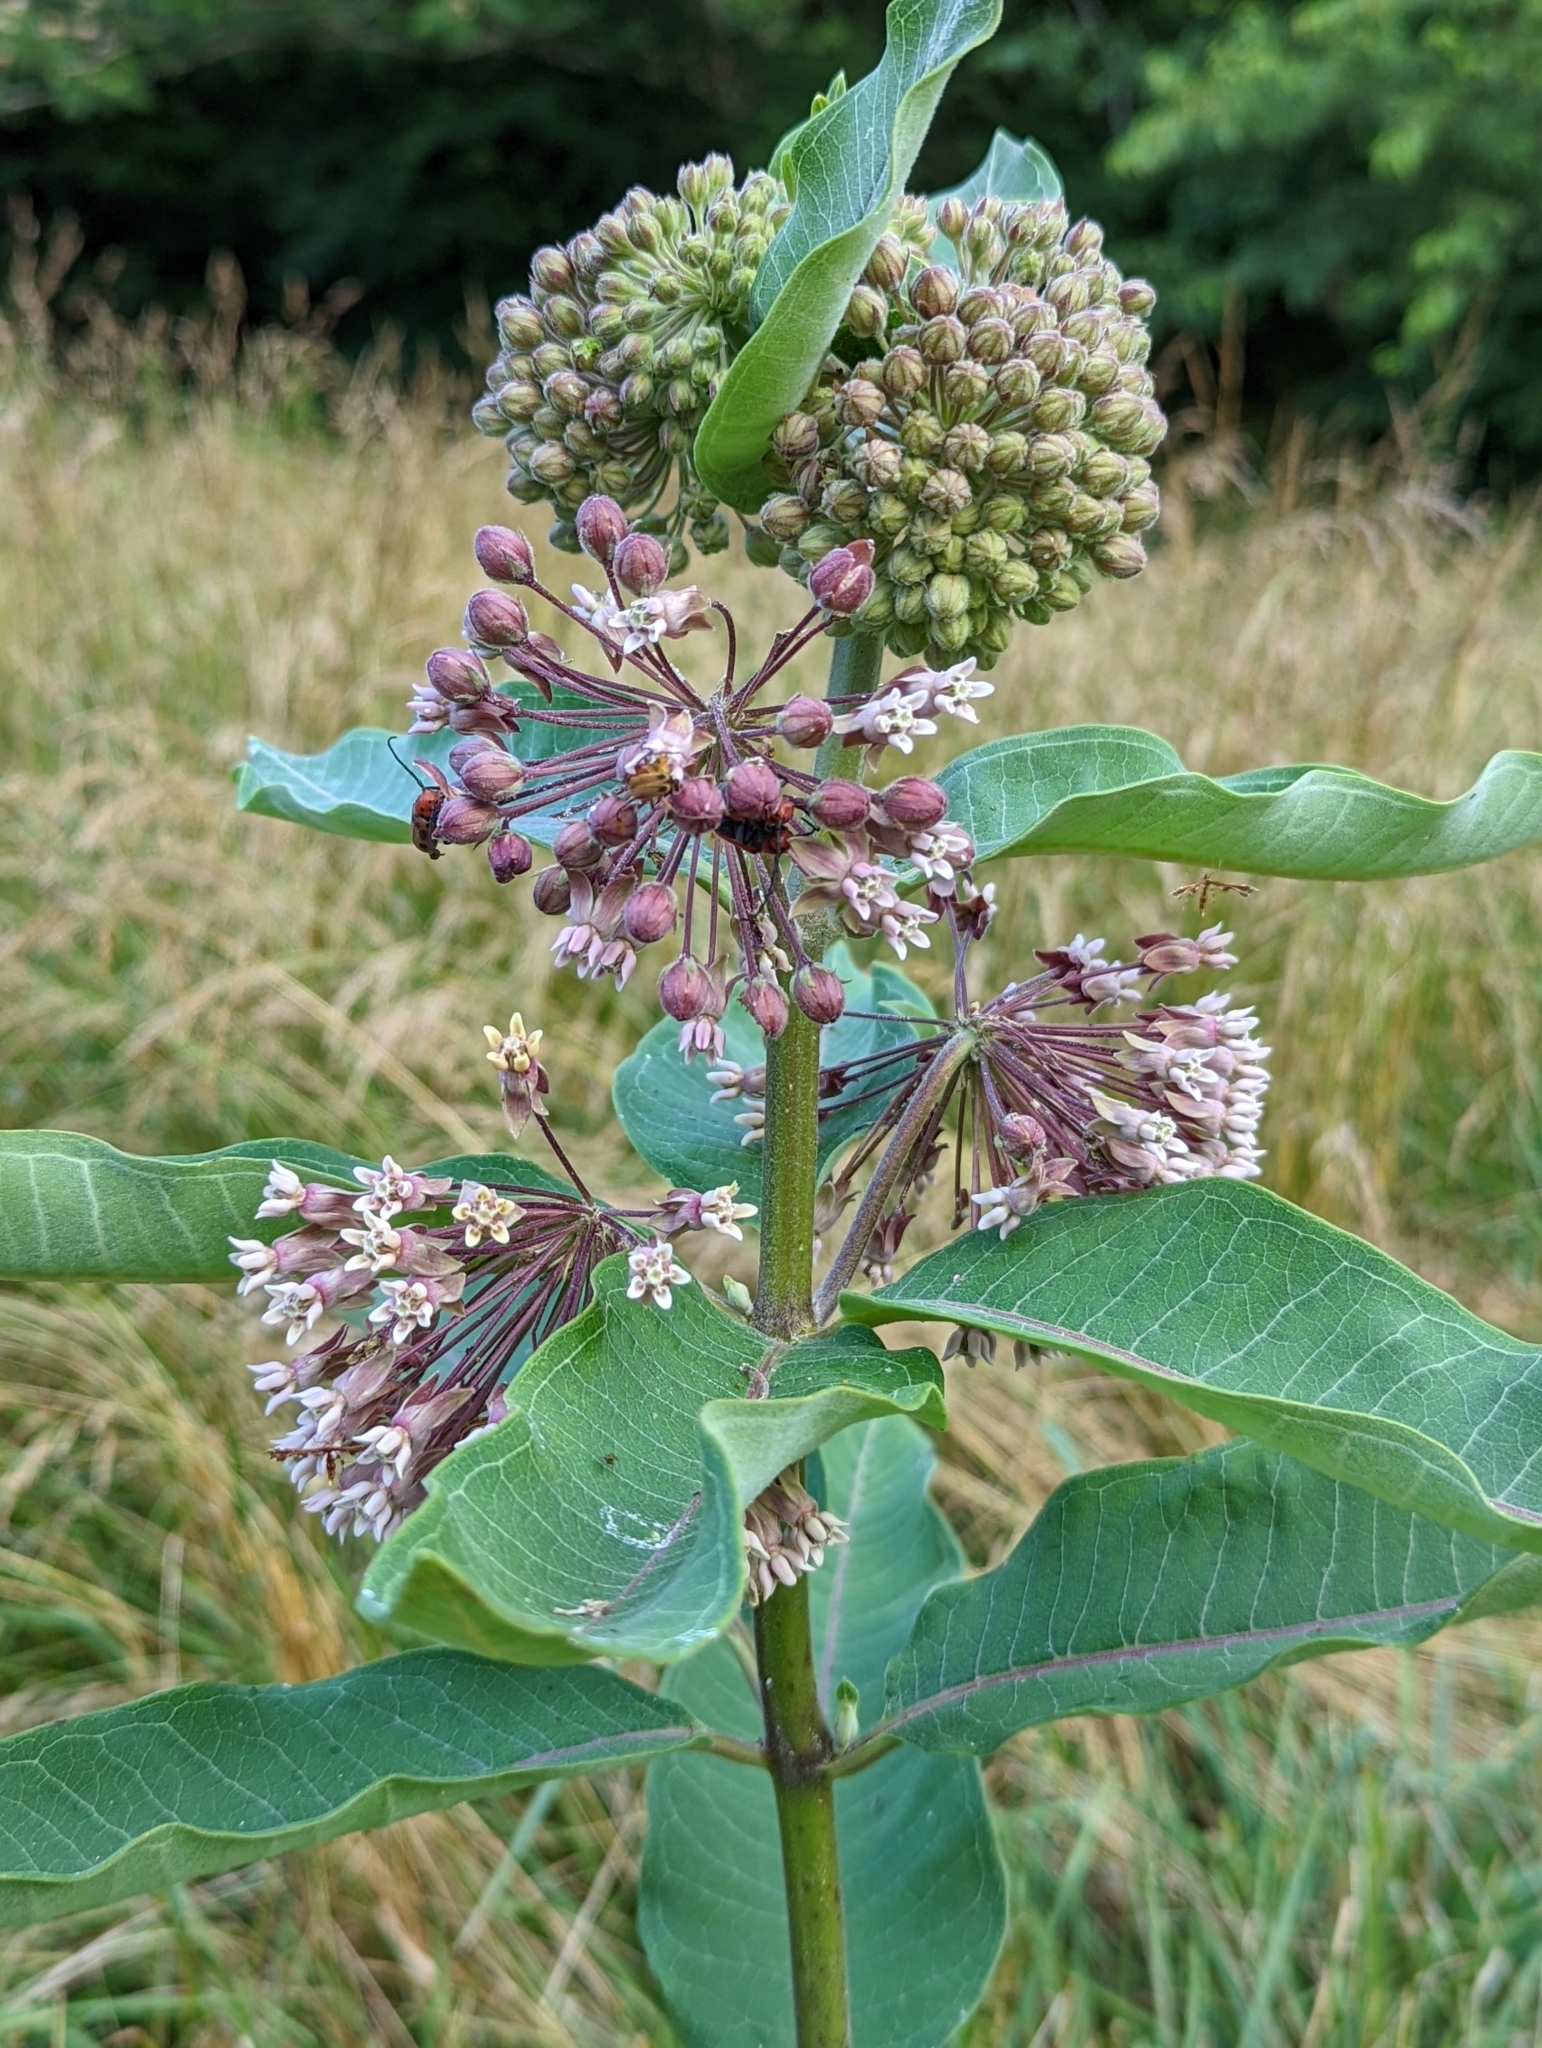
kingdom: Plantae
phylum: Tracheophyta
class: Magnoliopsida
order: Gentianales
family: Apocynaceae
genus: Asclepias
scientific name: Asclepias syriaca
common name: Common milkweed
